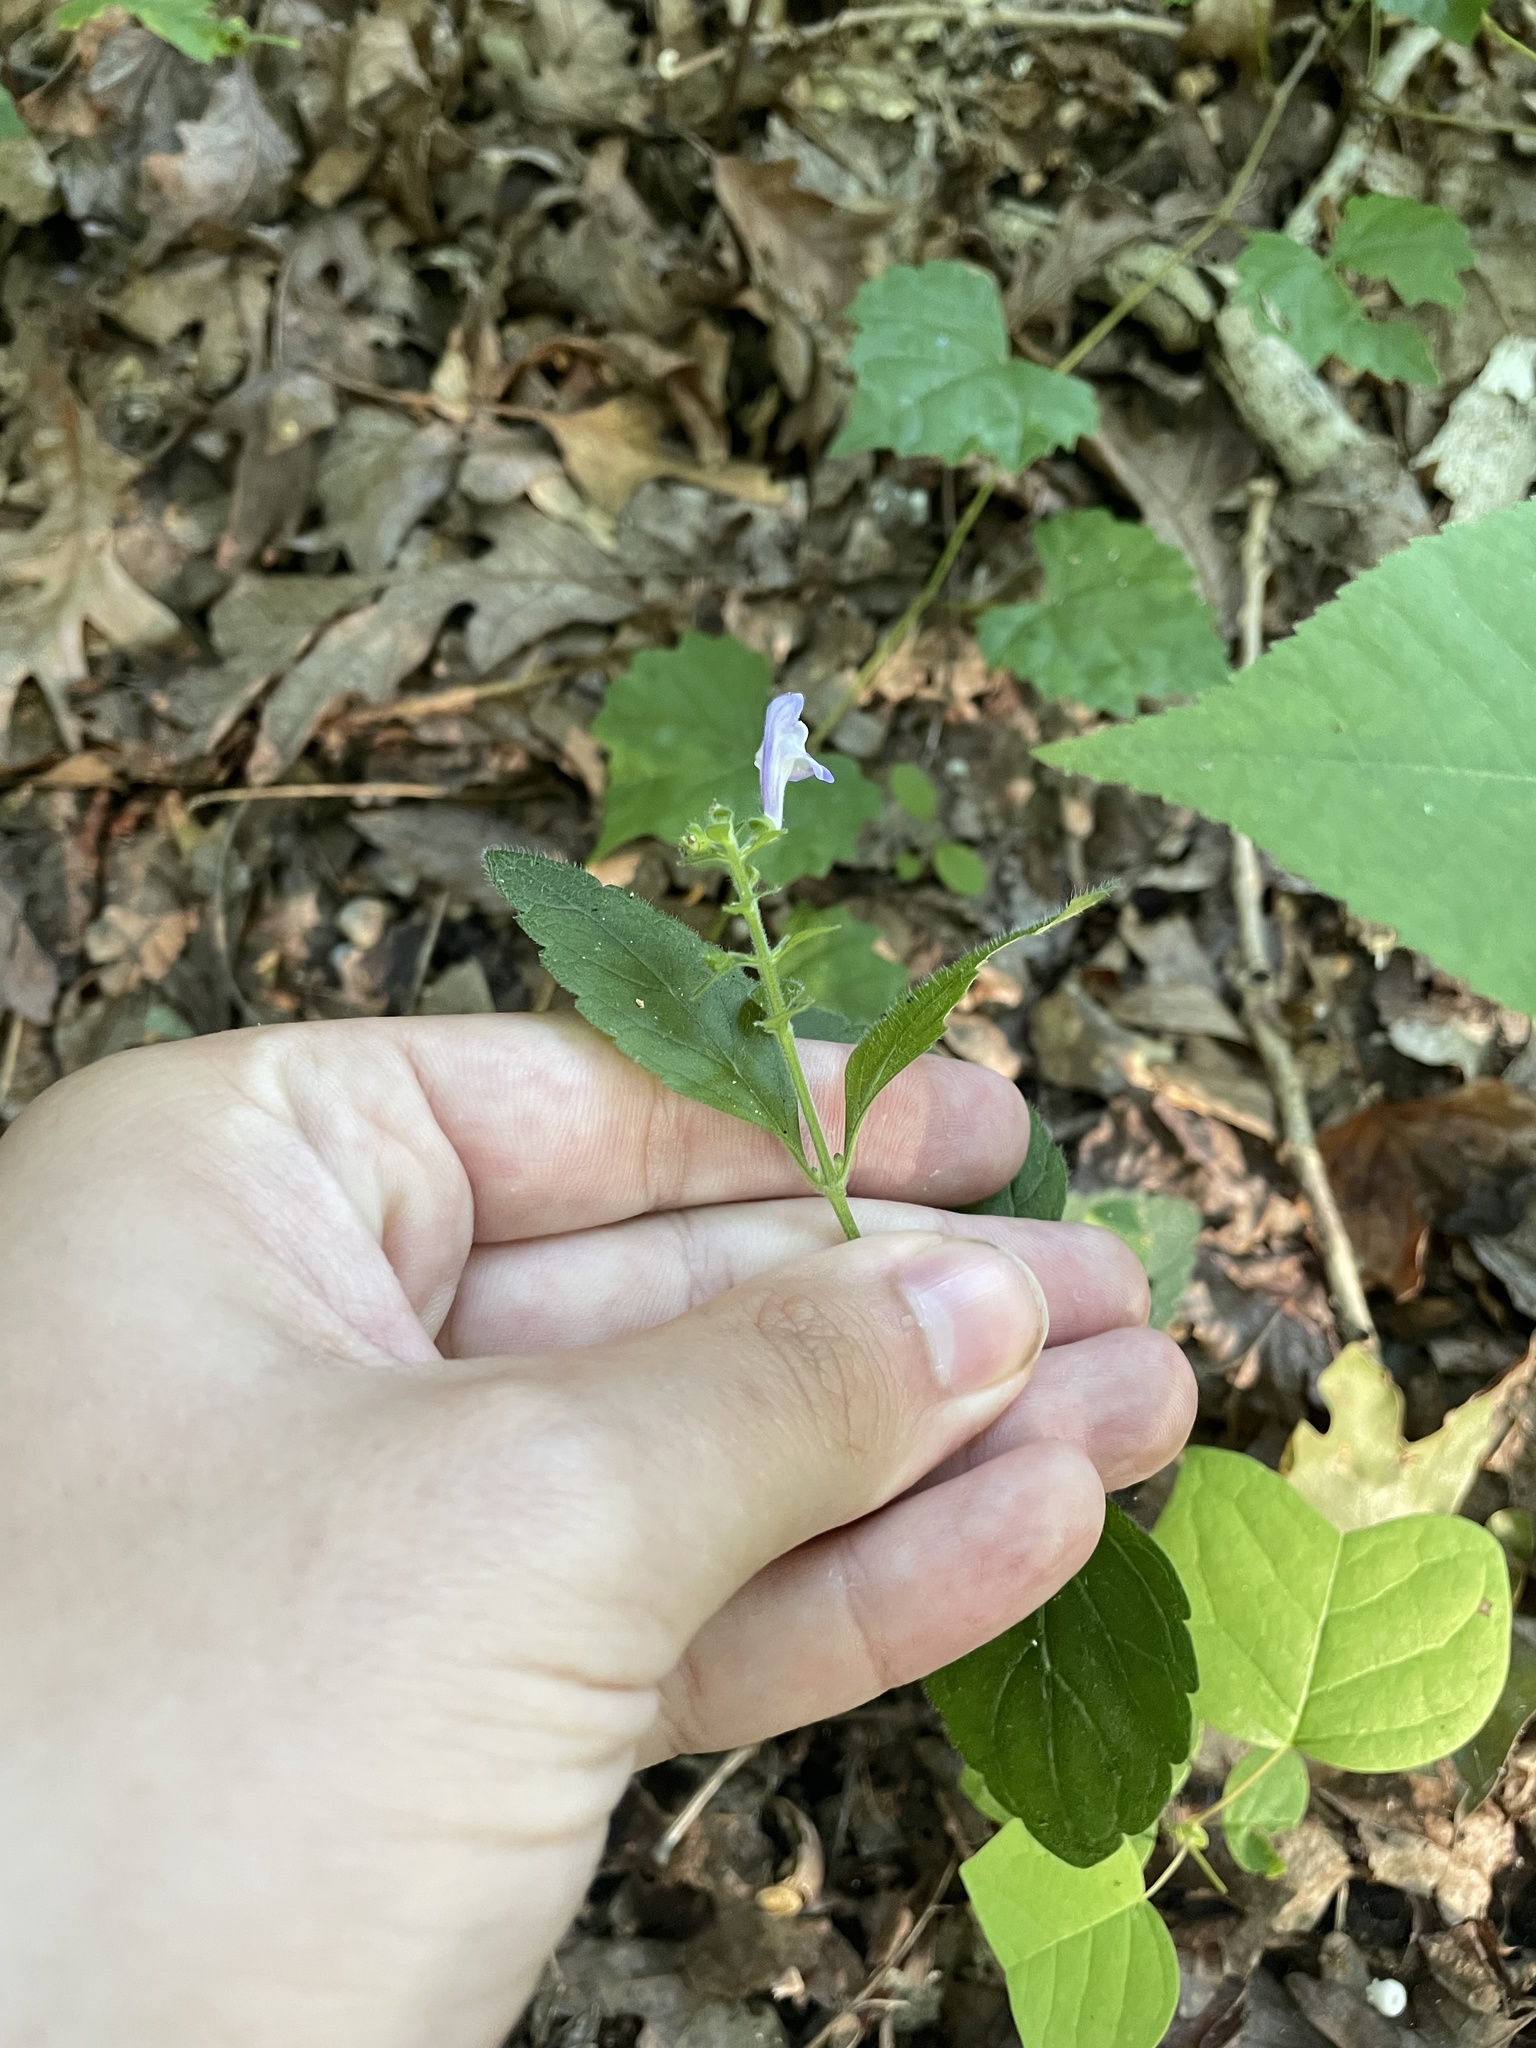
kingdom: Plantae
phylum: Tracheophyta
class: Magnoliopsida
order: Lamiales
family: Lamiaceae
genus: Scutellaria
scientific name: Scutellaria elliptica
